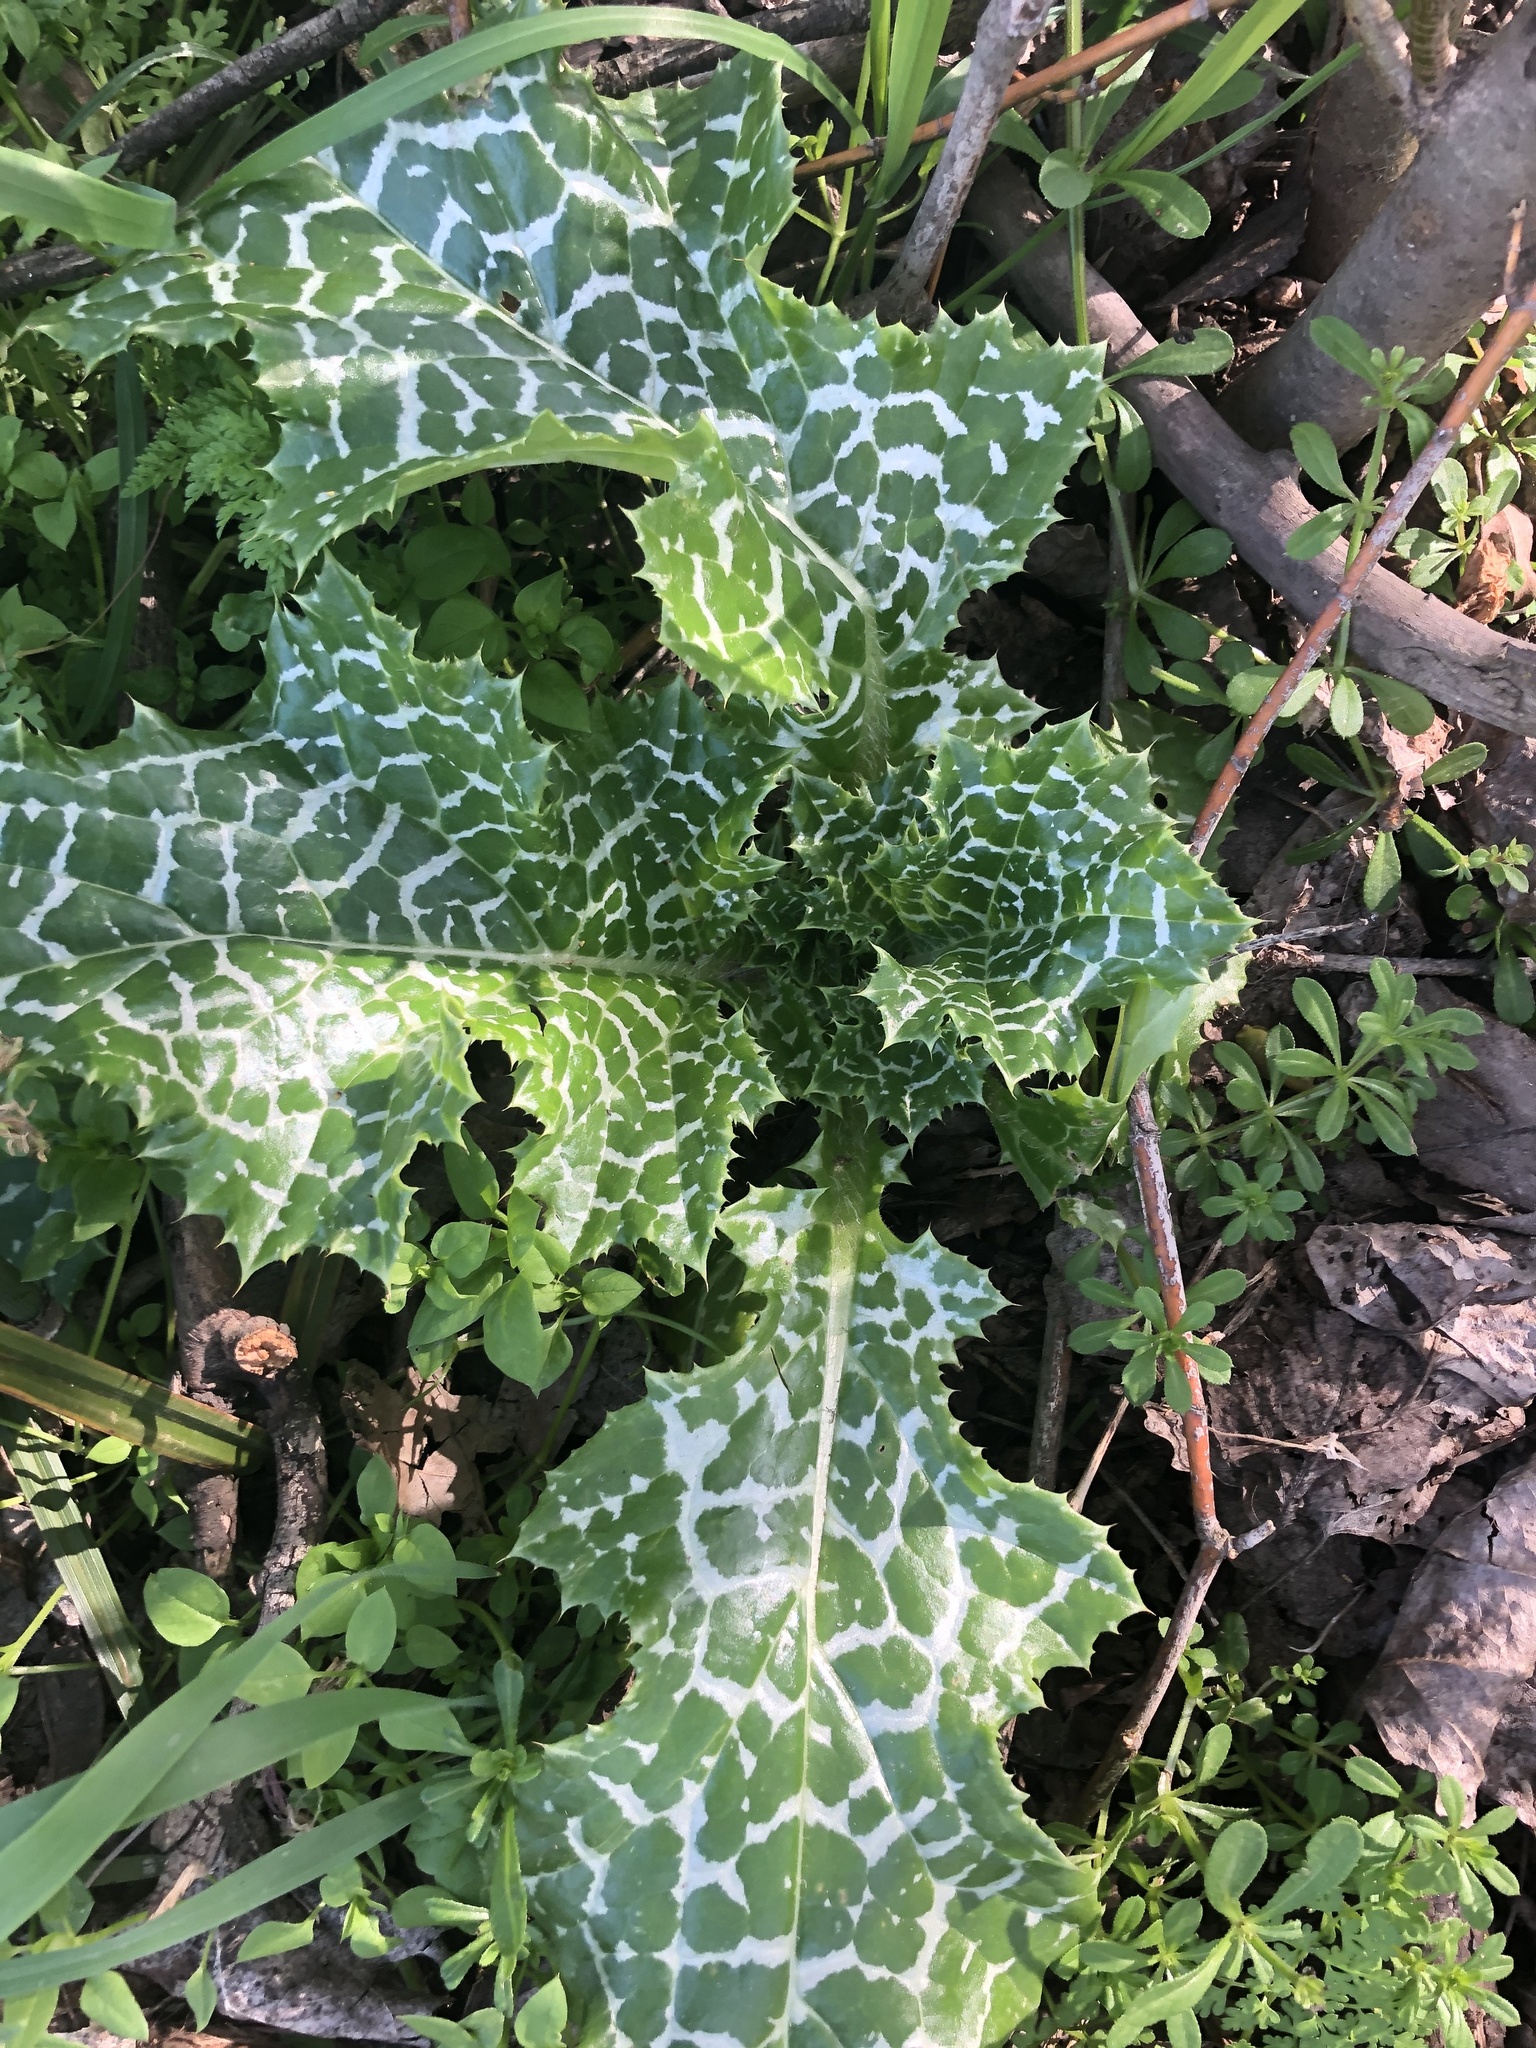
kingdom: Plantae
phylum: Tracheophyta
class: Magnoliopsida
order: Asterales
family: Asteraceae
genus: Silybum
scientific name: Silybum marianum
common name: Milk thistle
